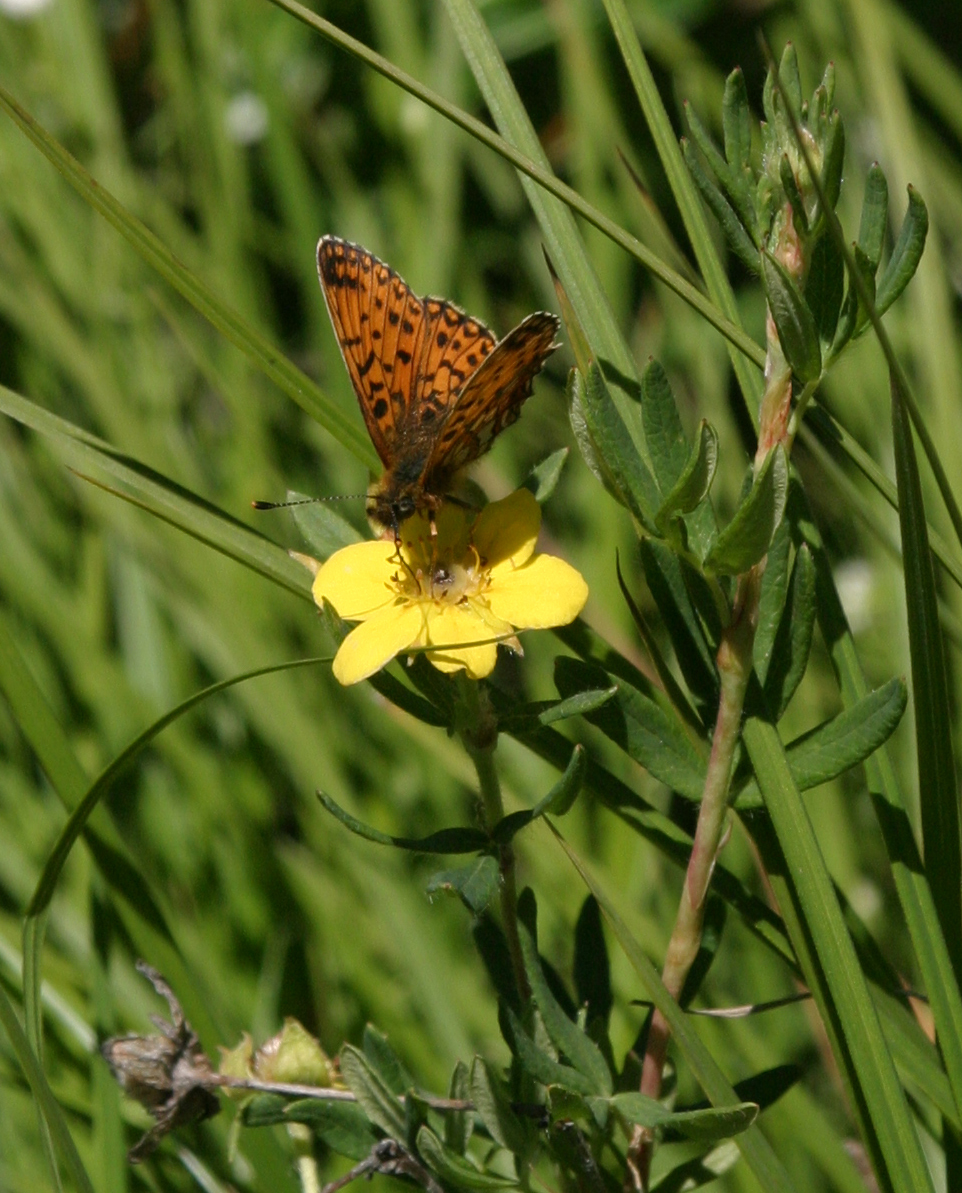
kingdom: Plantae
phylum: Tracheophyta
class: Magnoliopsida
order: Rosales
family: Rosaceae
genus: Dasiphora
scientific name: Dasiphora fruticosa
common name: Shrubby cinquefoil
